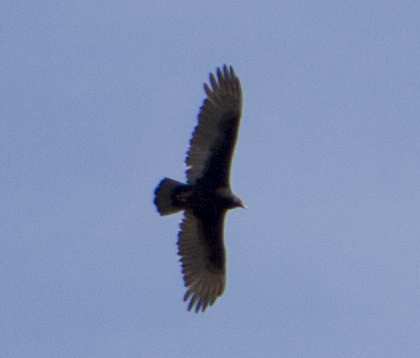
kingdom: Animalia
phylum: Chordata
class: Aves
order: Accipitriformes
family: Cathartidae
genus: Cathartes
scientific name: Cathartes aura
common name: Turkey vulture
